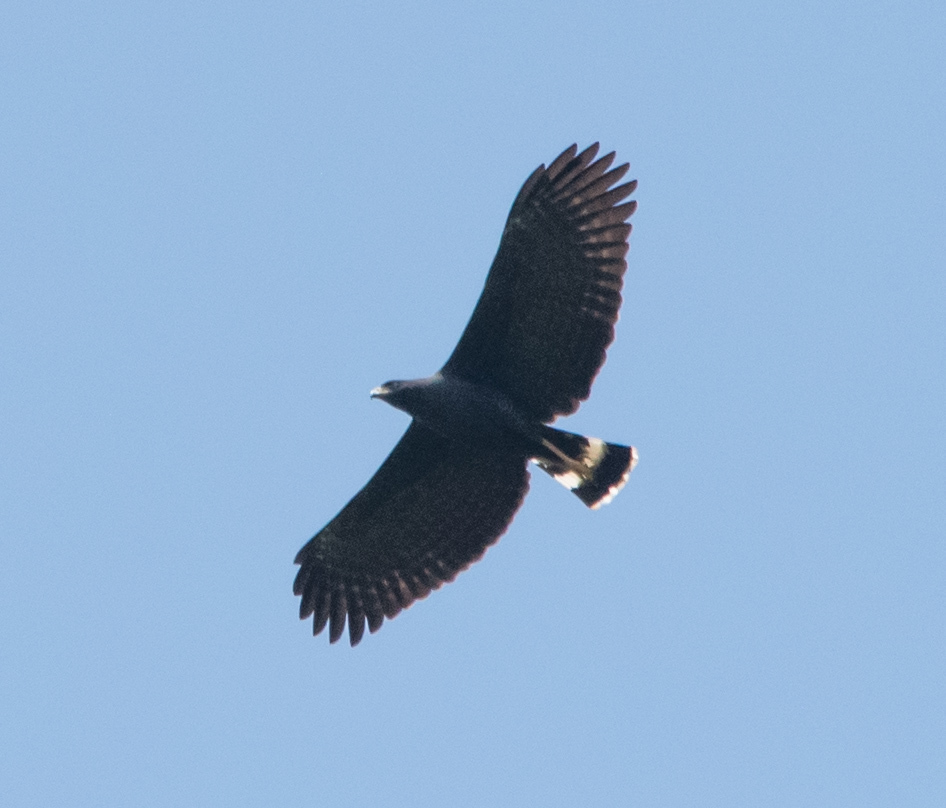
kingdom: Animalia
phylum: Chordata
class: Aves
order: Accipitriformes
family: Accipitridae
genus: Buteogallus
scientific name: Buteogallus anthracinus
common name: Common black hawk
